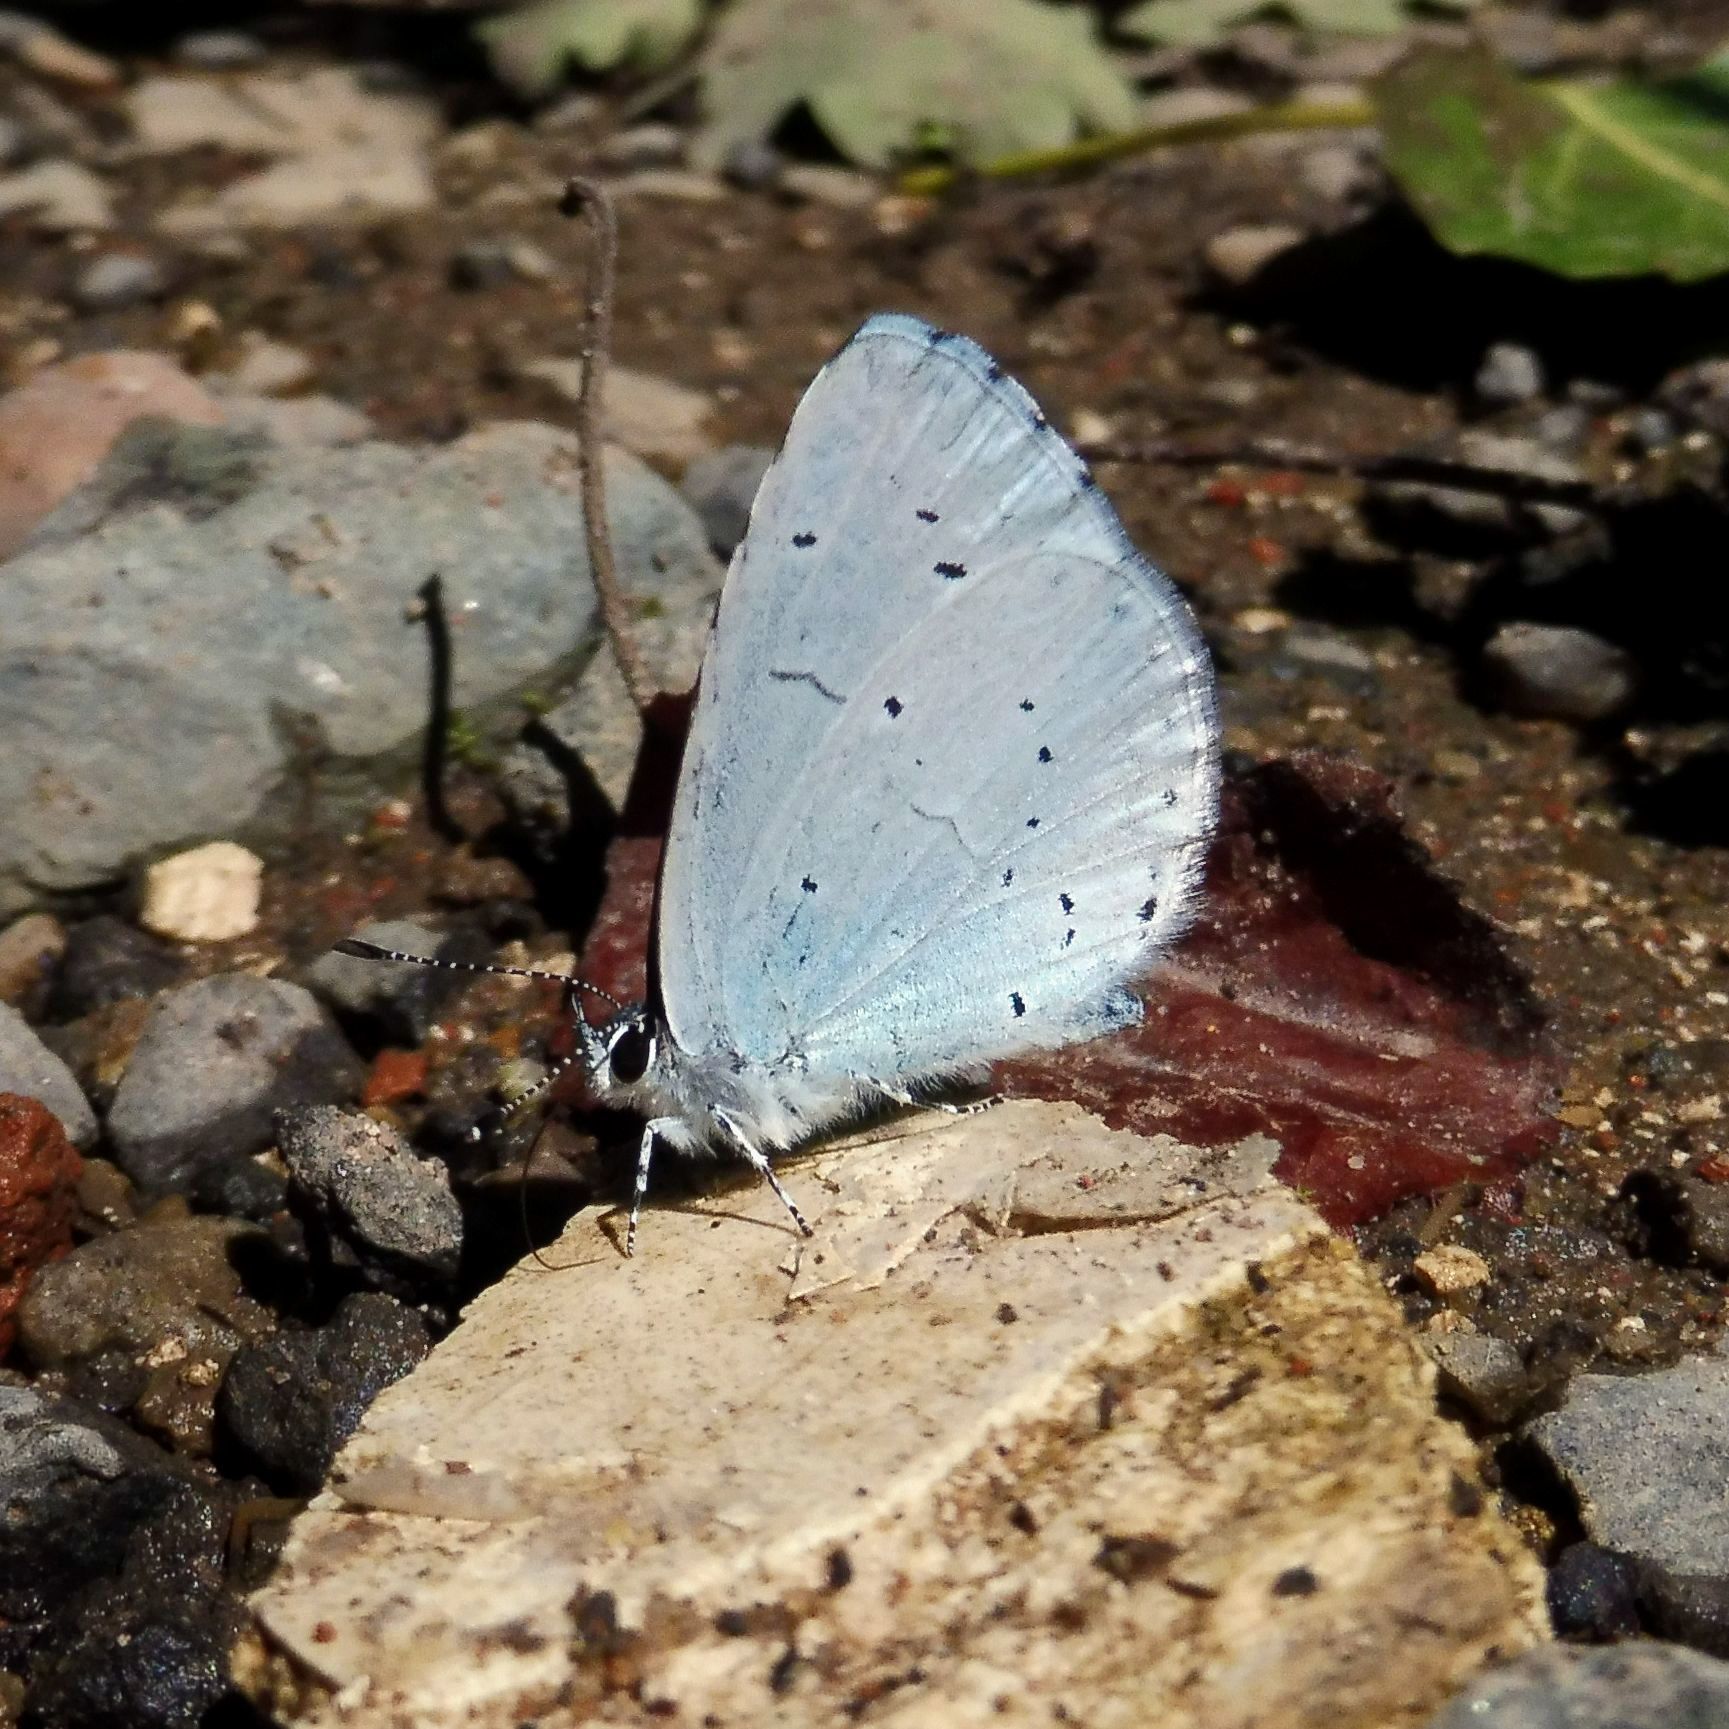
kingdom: Animalia
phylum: Arthropoda
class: Insecta
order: Lepidoptera
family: Lycaenidae
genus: Celastrina
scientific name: Celastrina argiolus
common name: Holly blue
